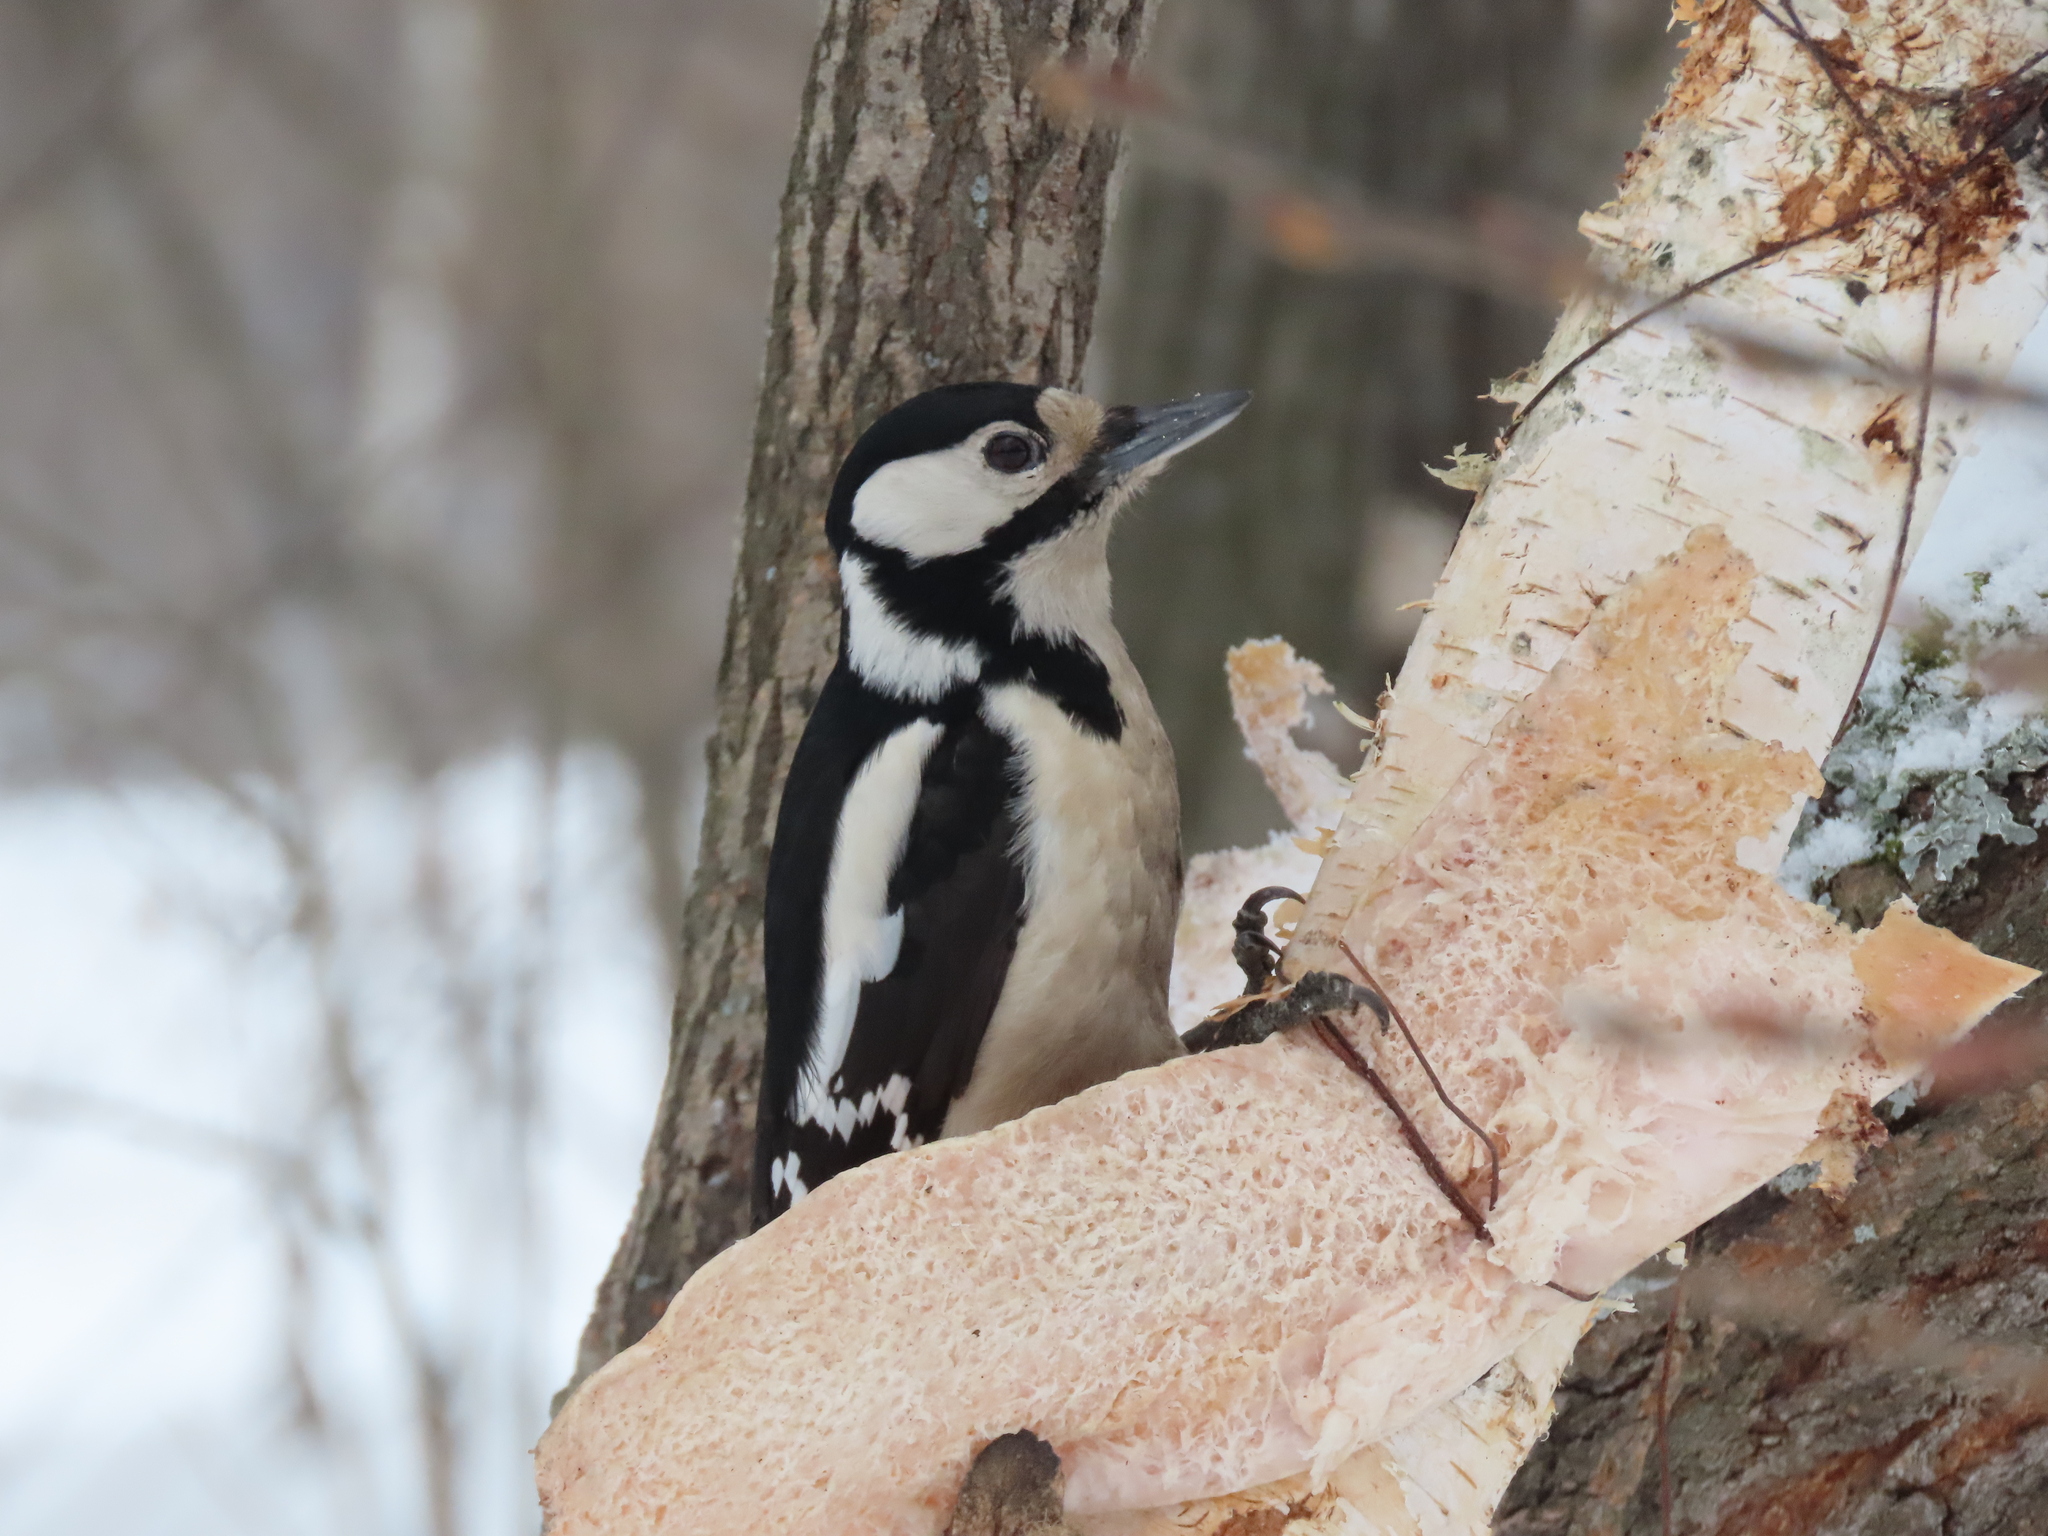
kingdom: Animalia
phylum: Chordata
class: Aves
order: Piciformes
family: Picidae
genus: Dendrocopos
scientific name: Dendrocopos major
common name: Great spotted woodpecker
